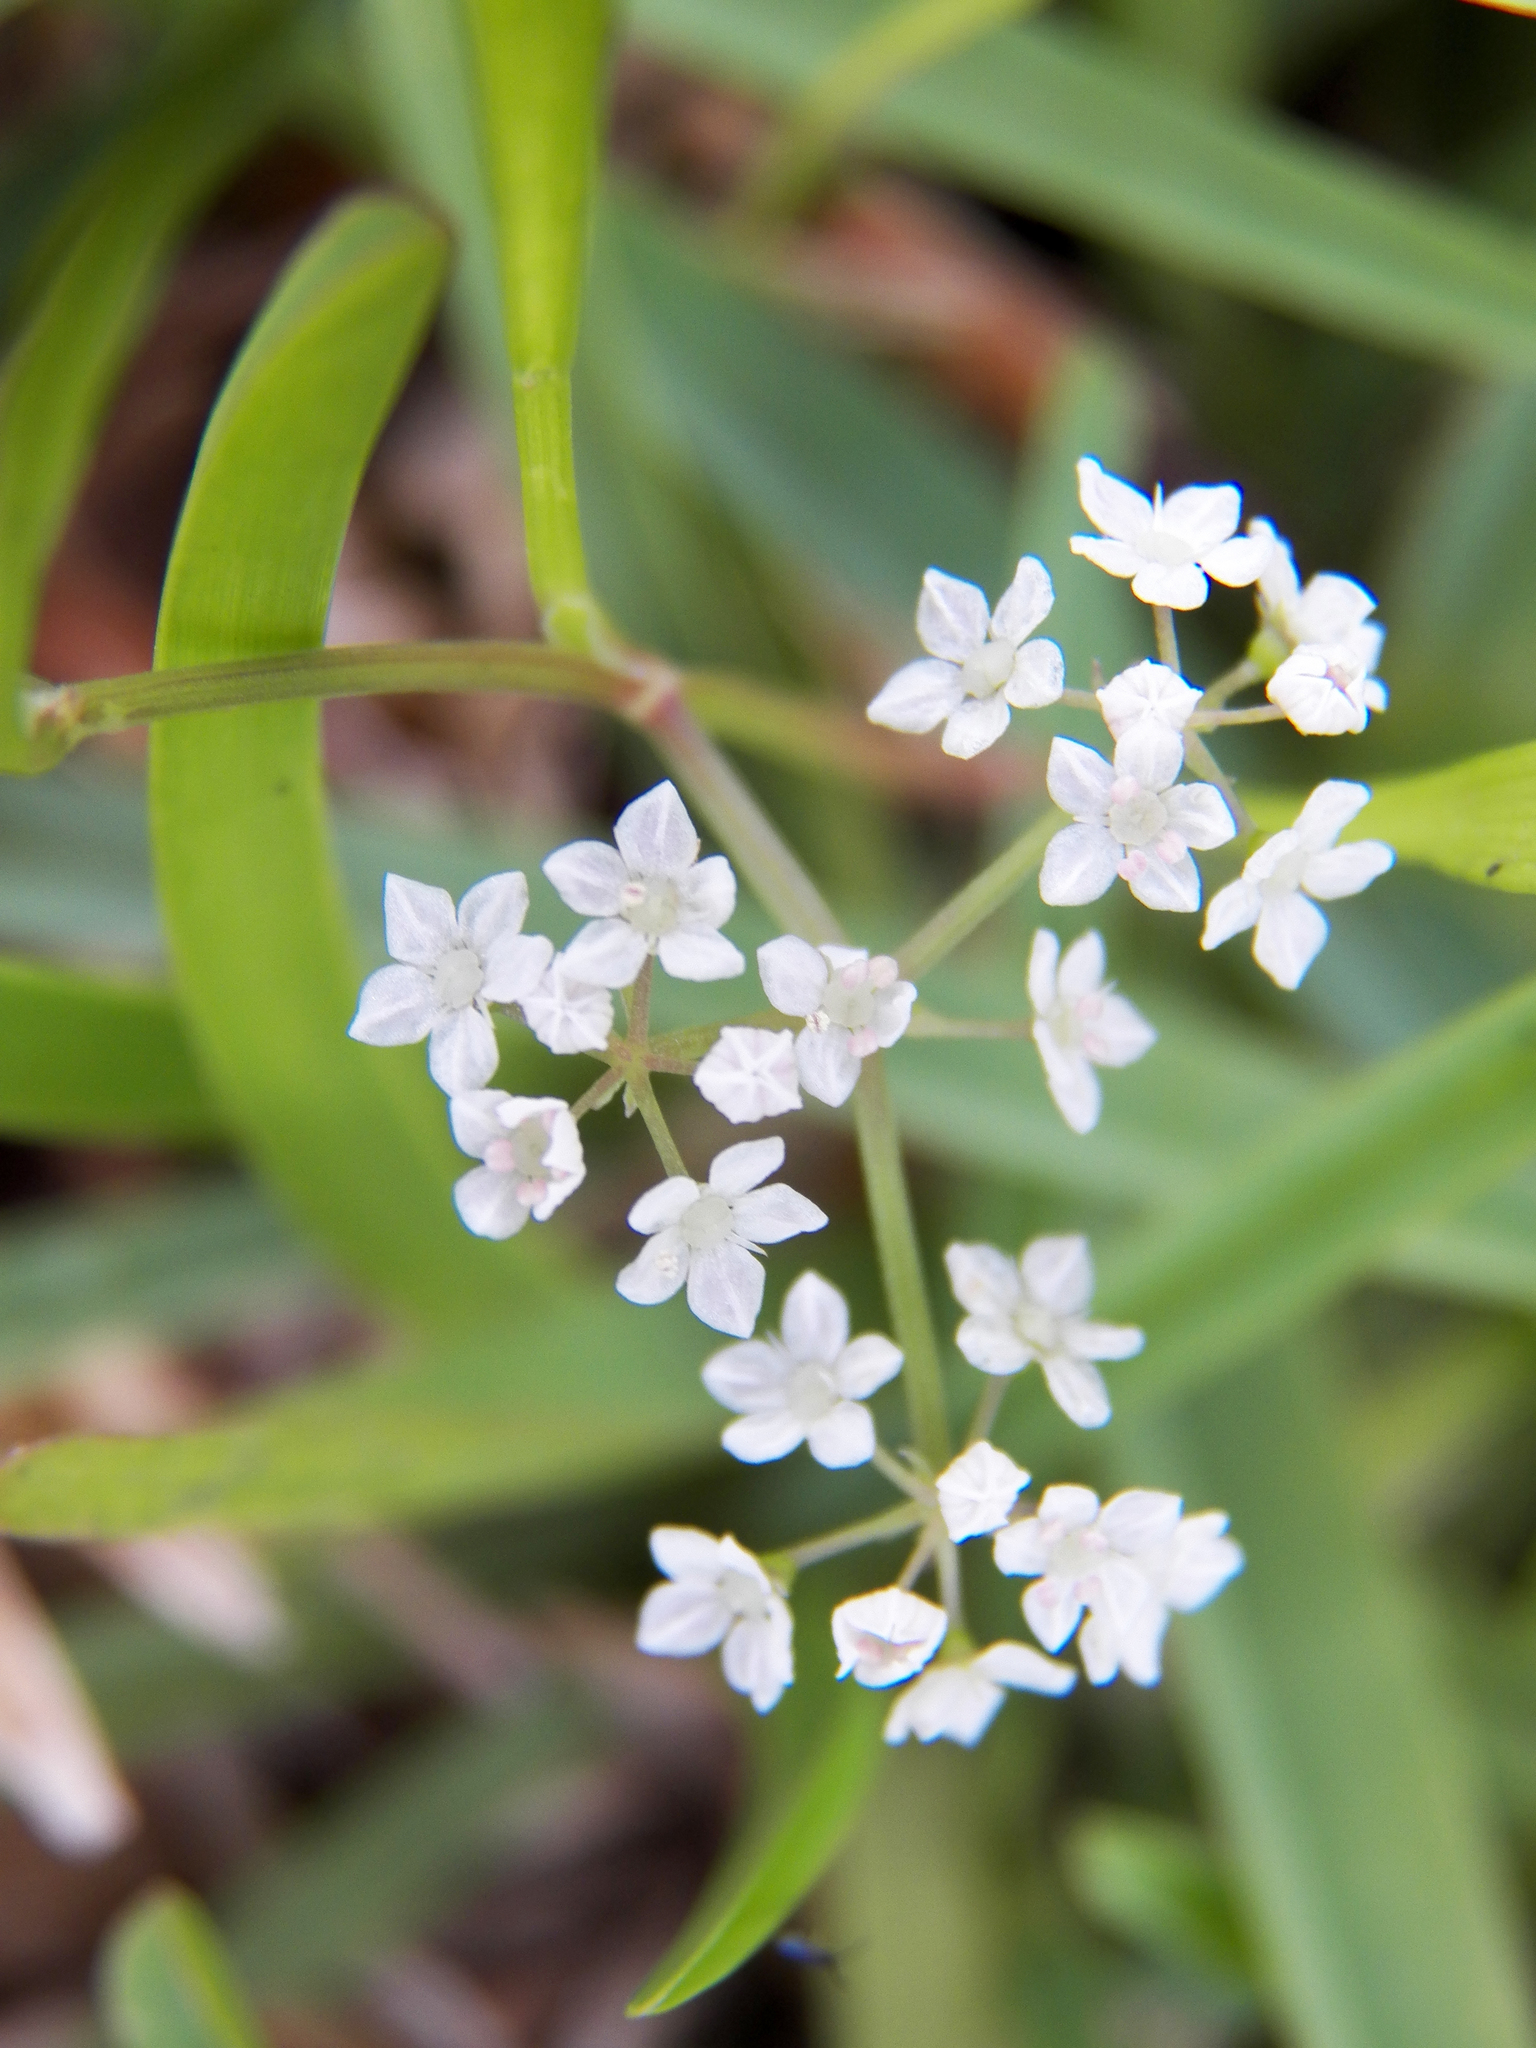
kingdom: Plantae
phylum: Tracheophyta
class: Magnoliopsida
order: Apiales
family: Apiaceae
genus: Limnosciadium
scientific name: Limnosciadium pinnatum
